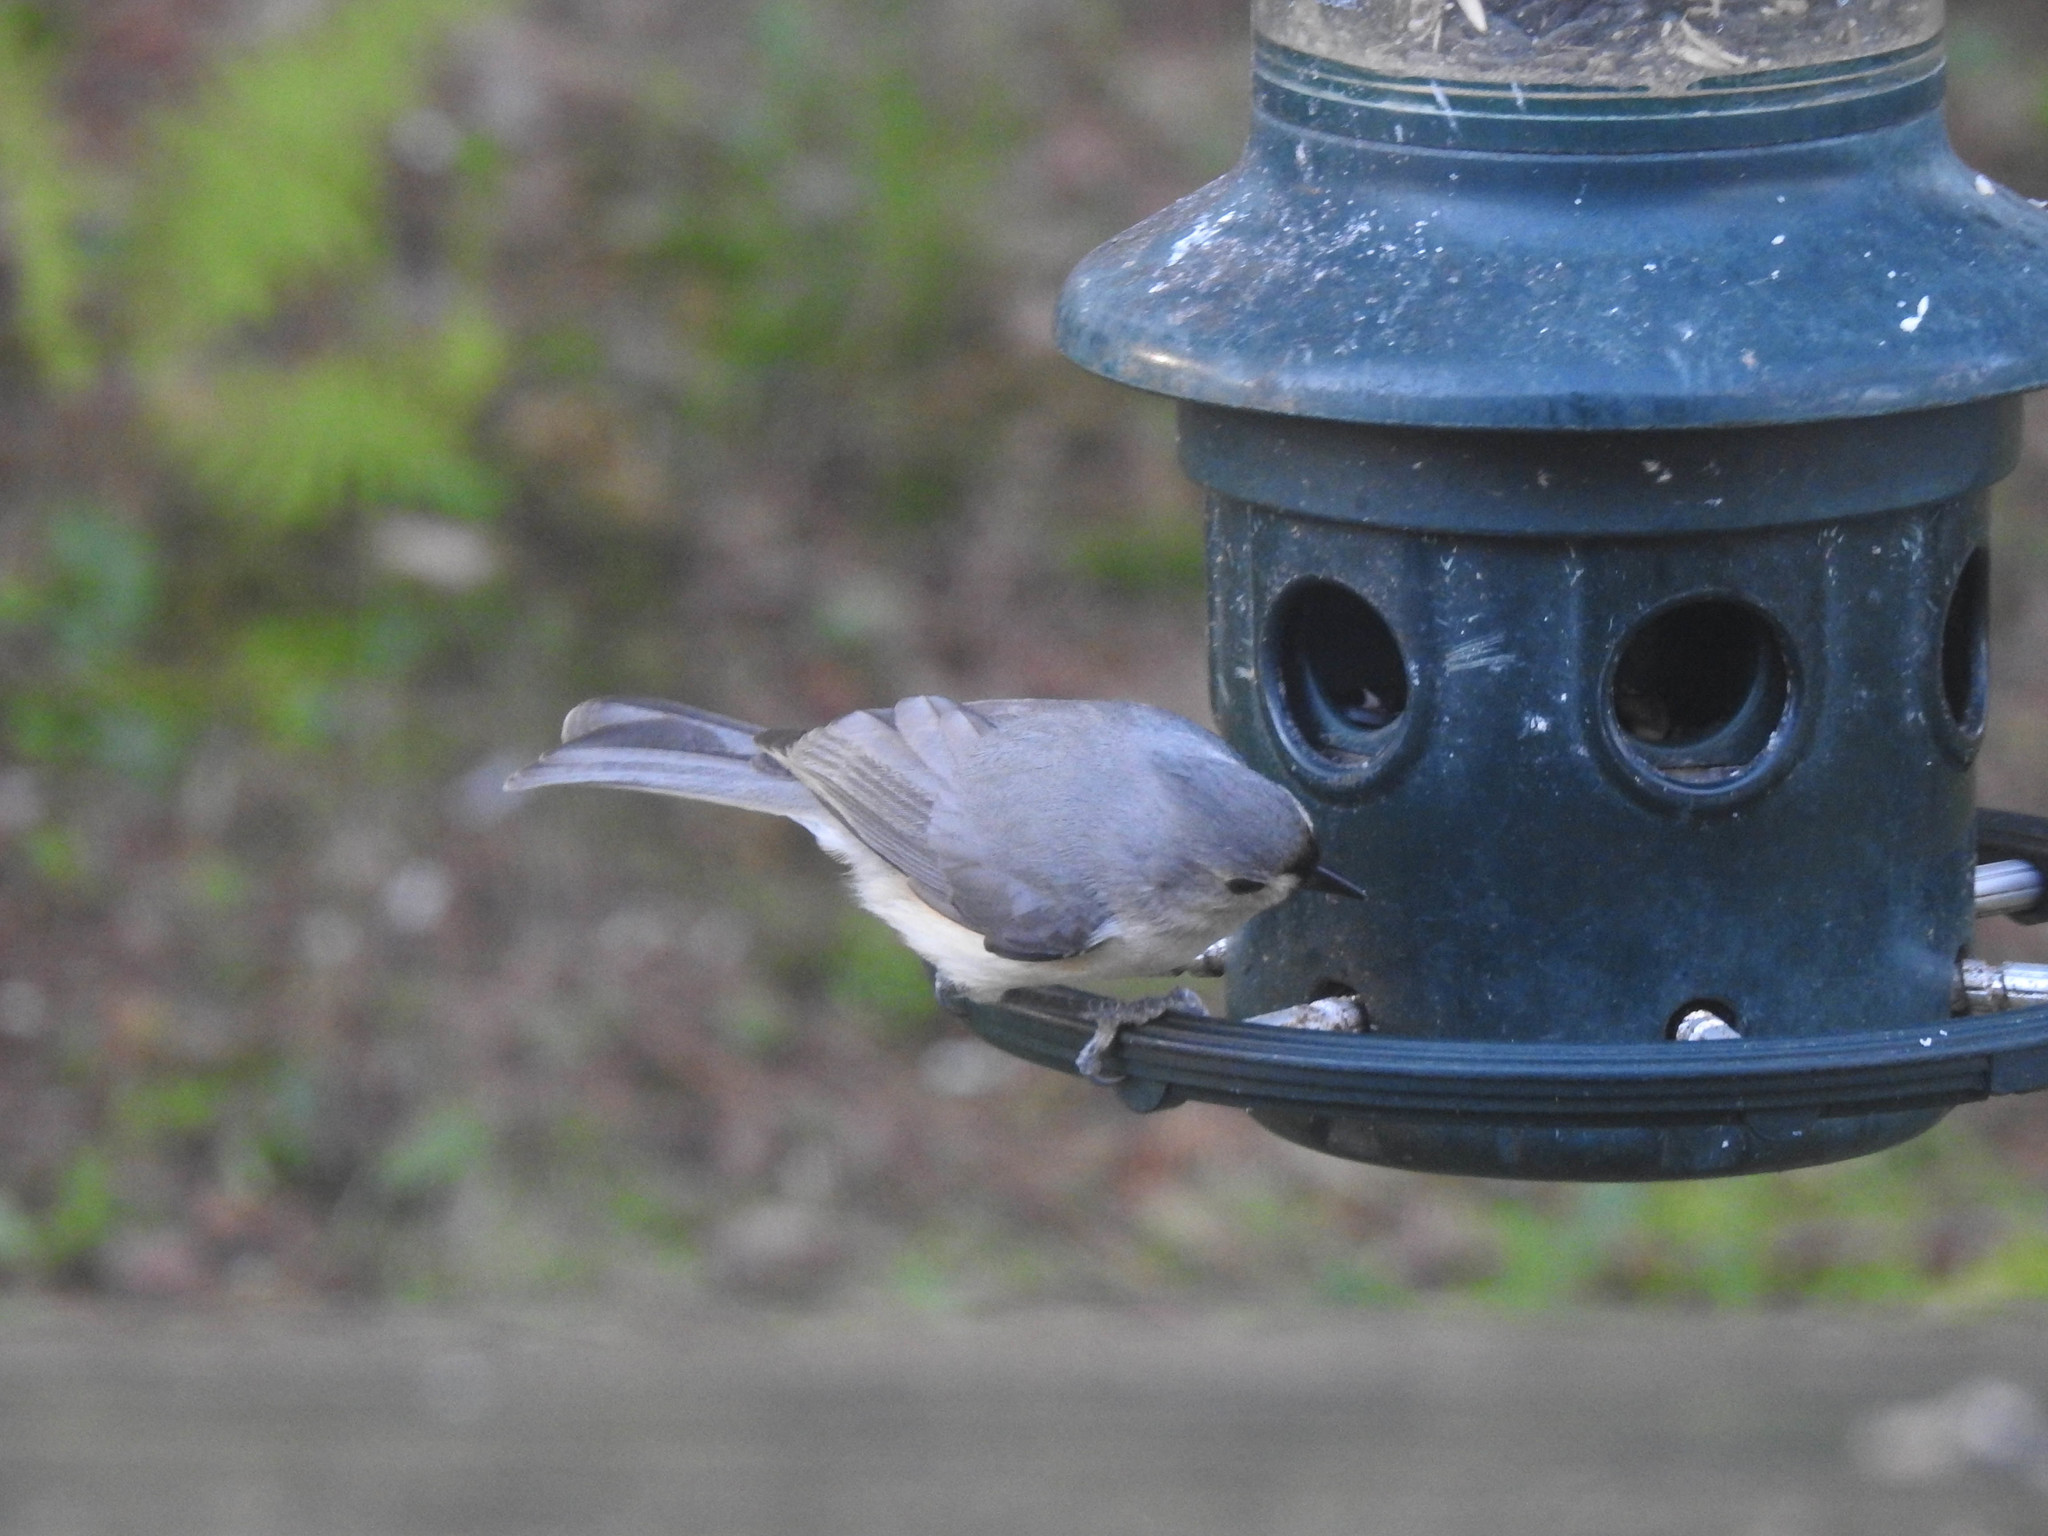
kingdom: Animalia
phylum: Chordata
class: Aves
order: Passeriformes
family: Paridae
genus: Baeolophus
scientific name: Baeolophus bicolor
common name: Tufted titmouse
